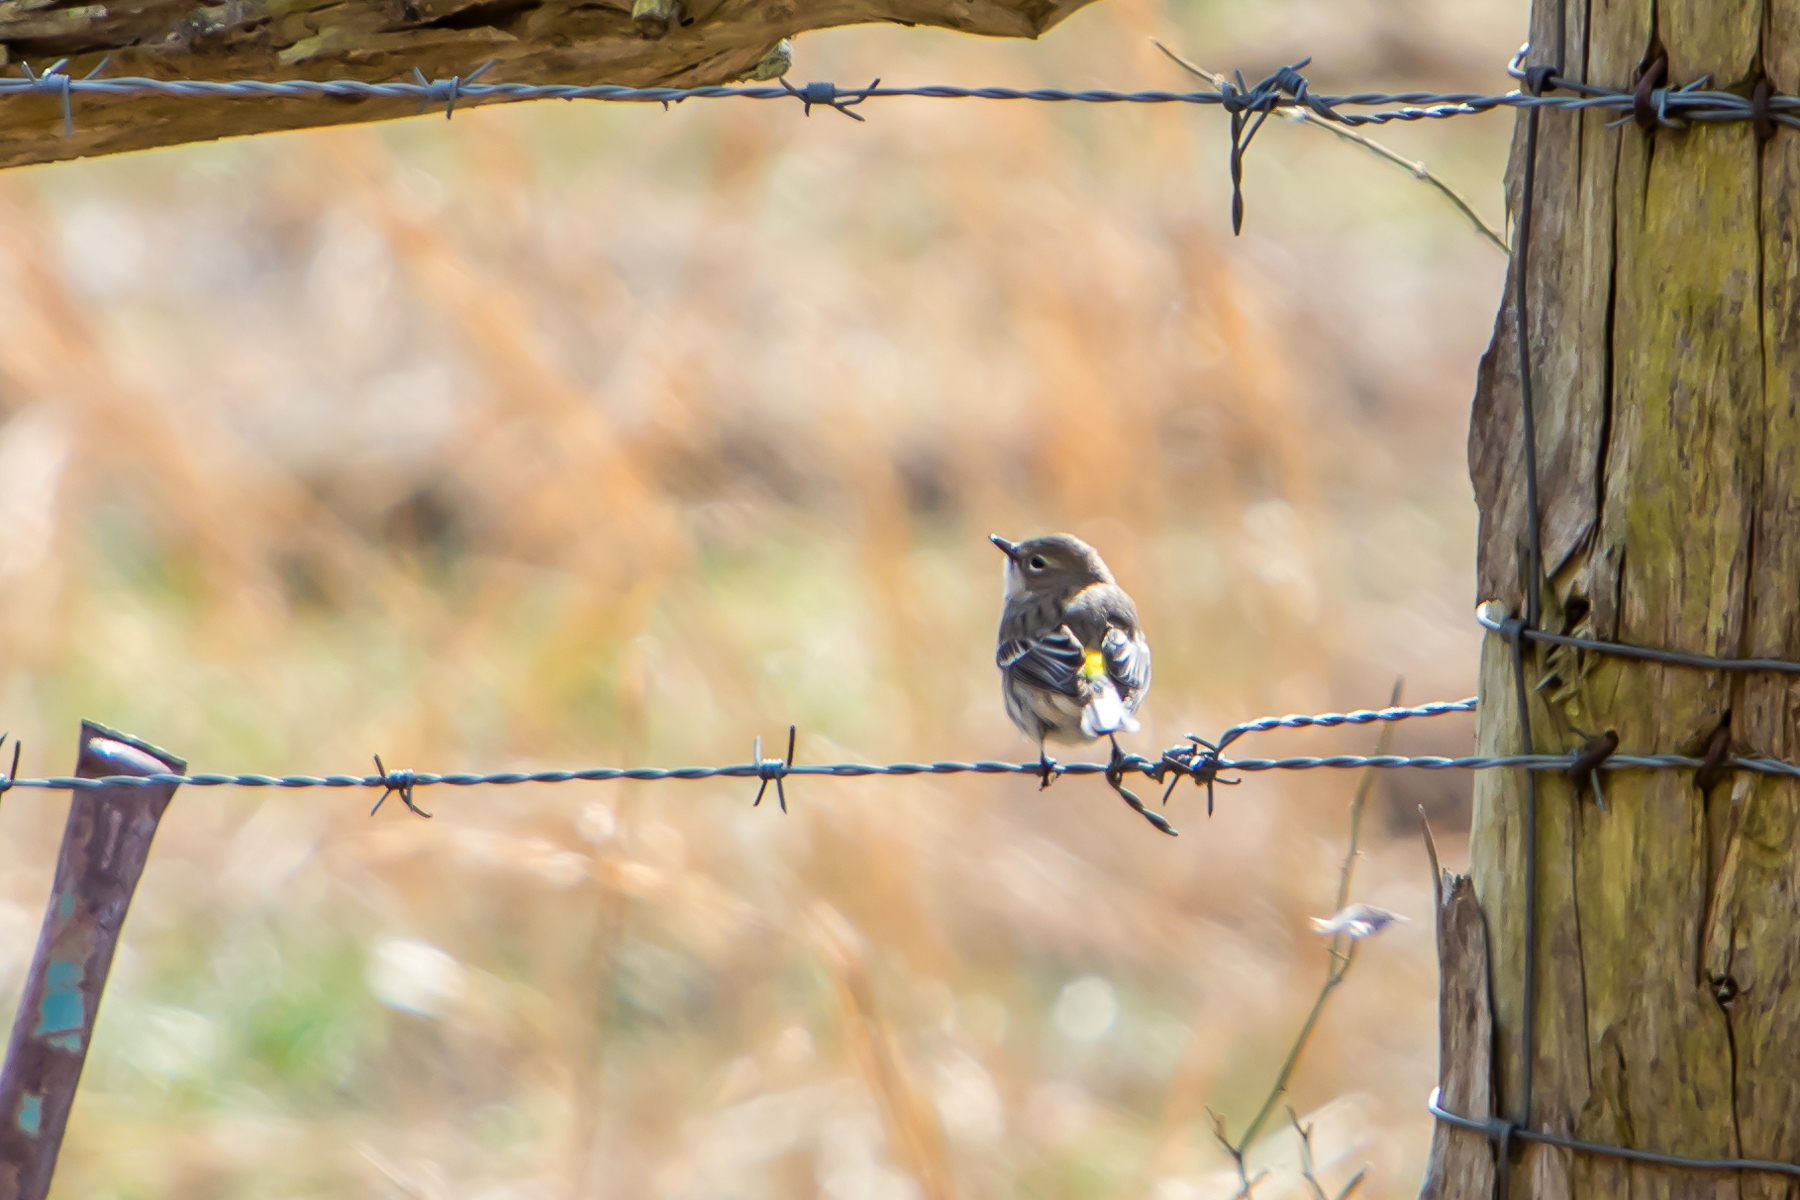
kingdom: Animalia
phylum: Chordata
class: Aves
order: Passeriformes
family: Parulidae
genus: Setophaga
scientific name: Setophaga coronata
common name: Myrtle warbler
